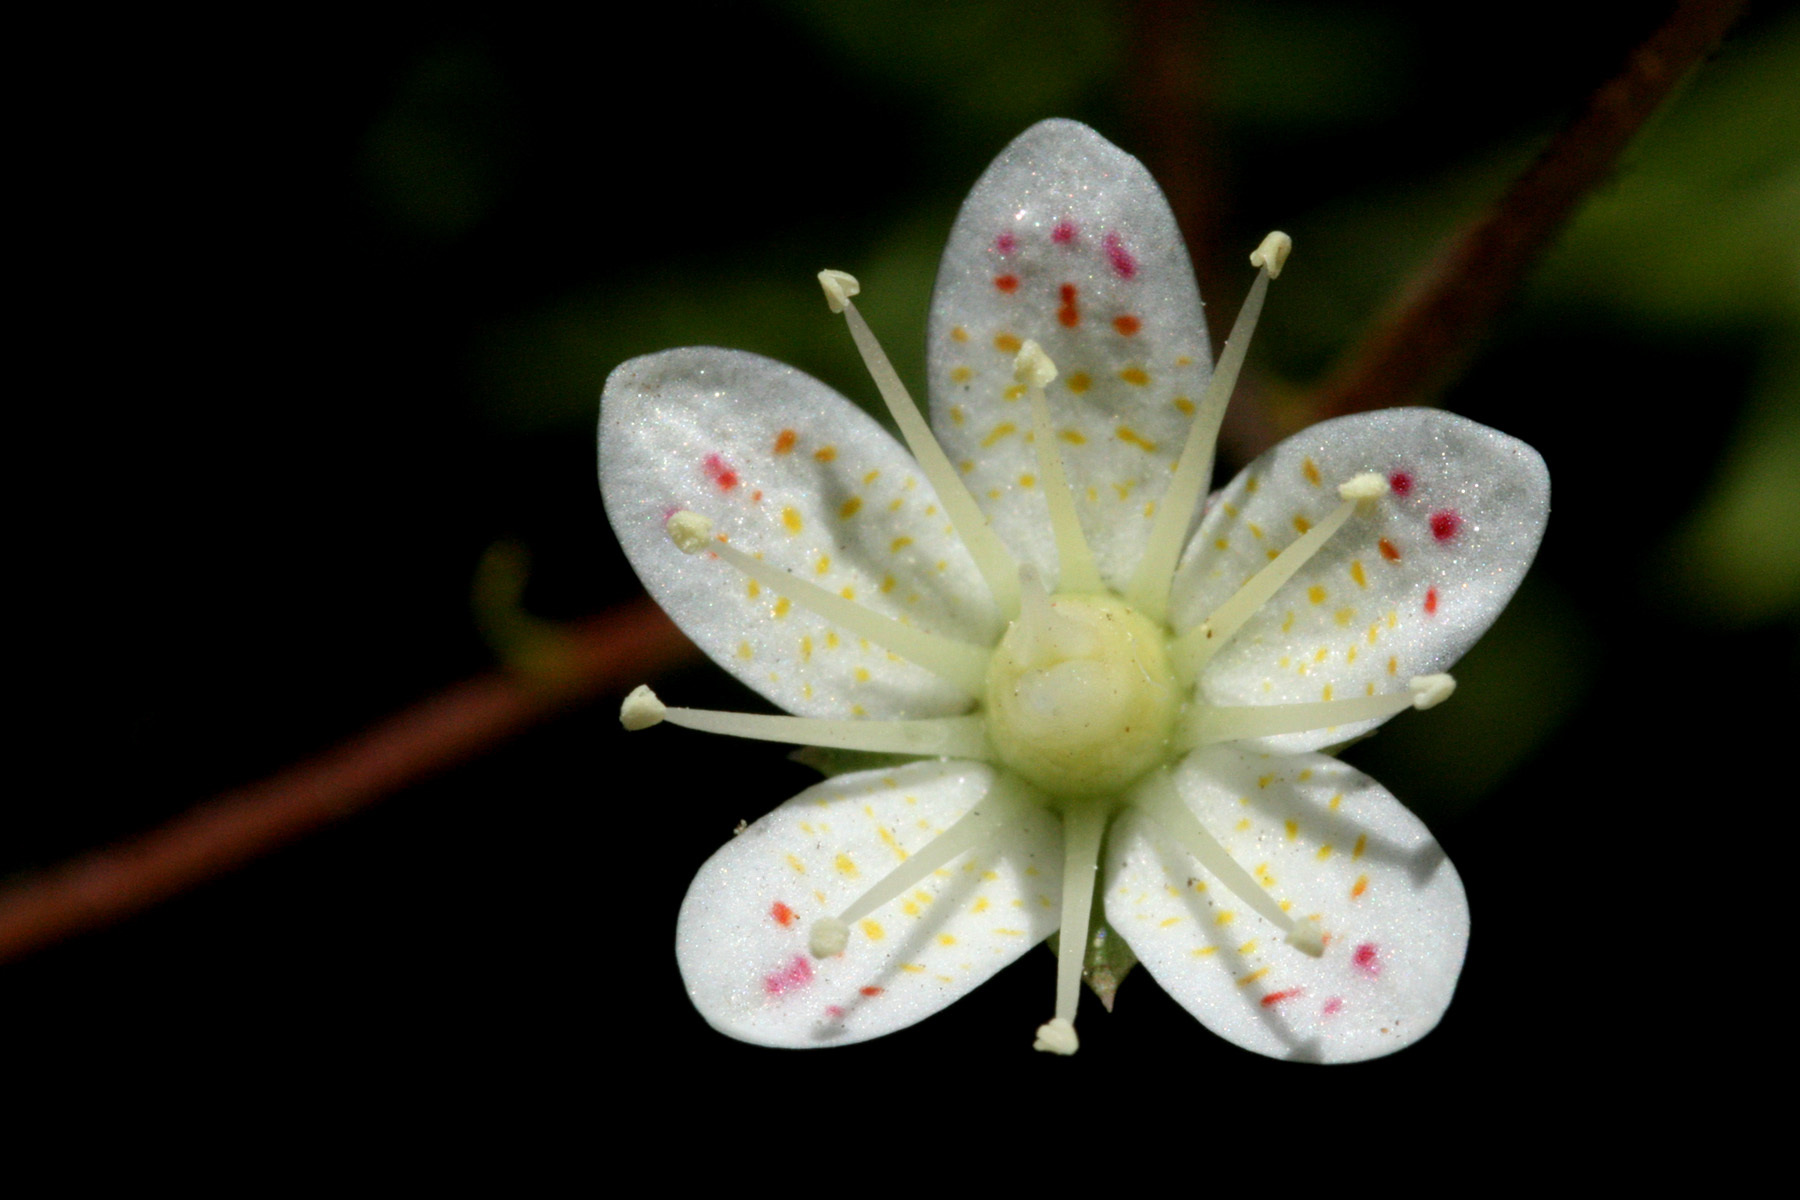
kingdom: Plantae
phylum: Tracheophyta
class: Magnoliopsida
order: Saxifragales
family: Saxifragaceae
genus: Saxifraga
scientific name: Saxifraga bronchialis
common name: Matted saxifrage
